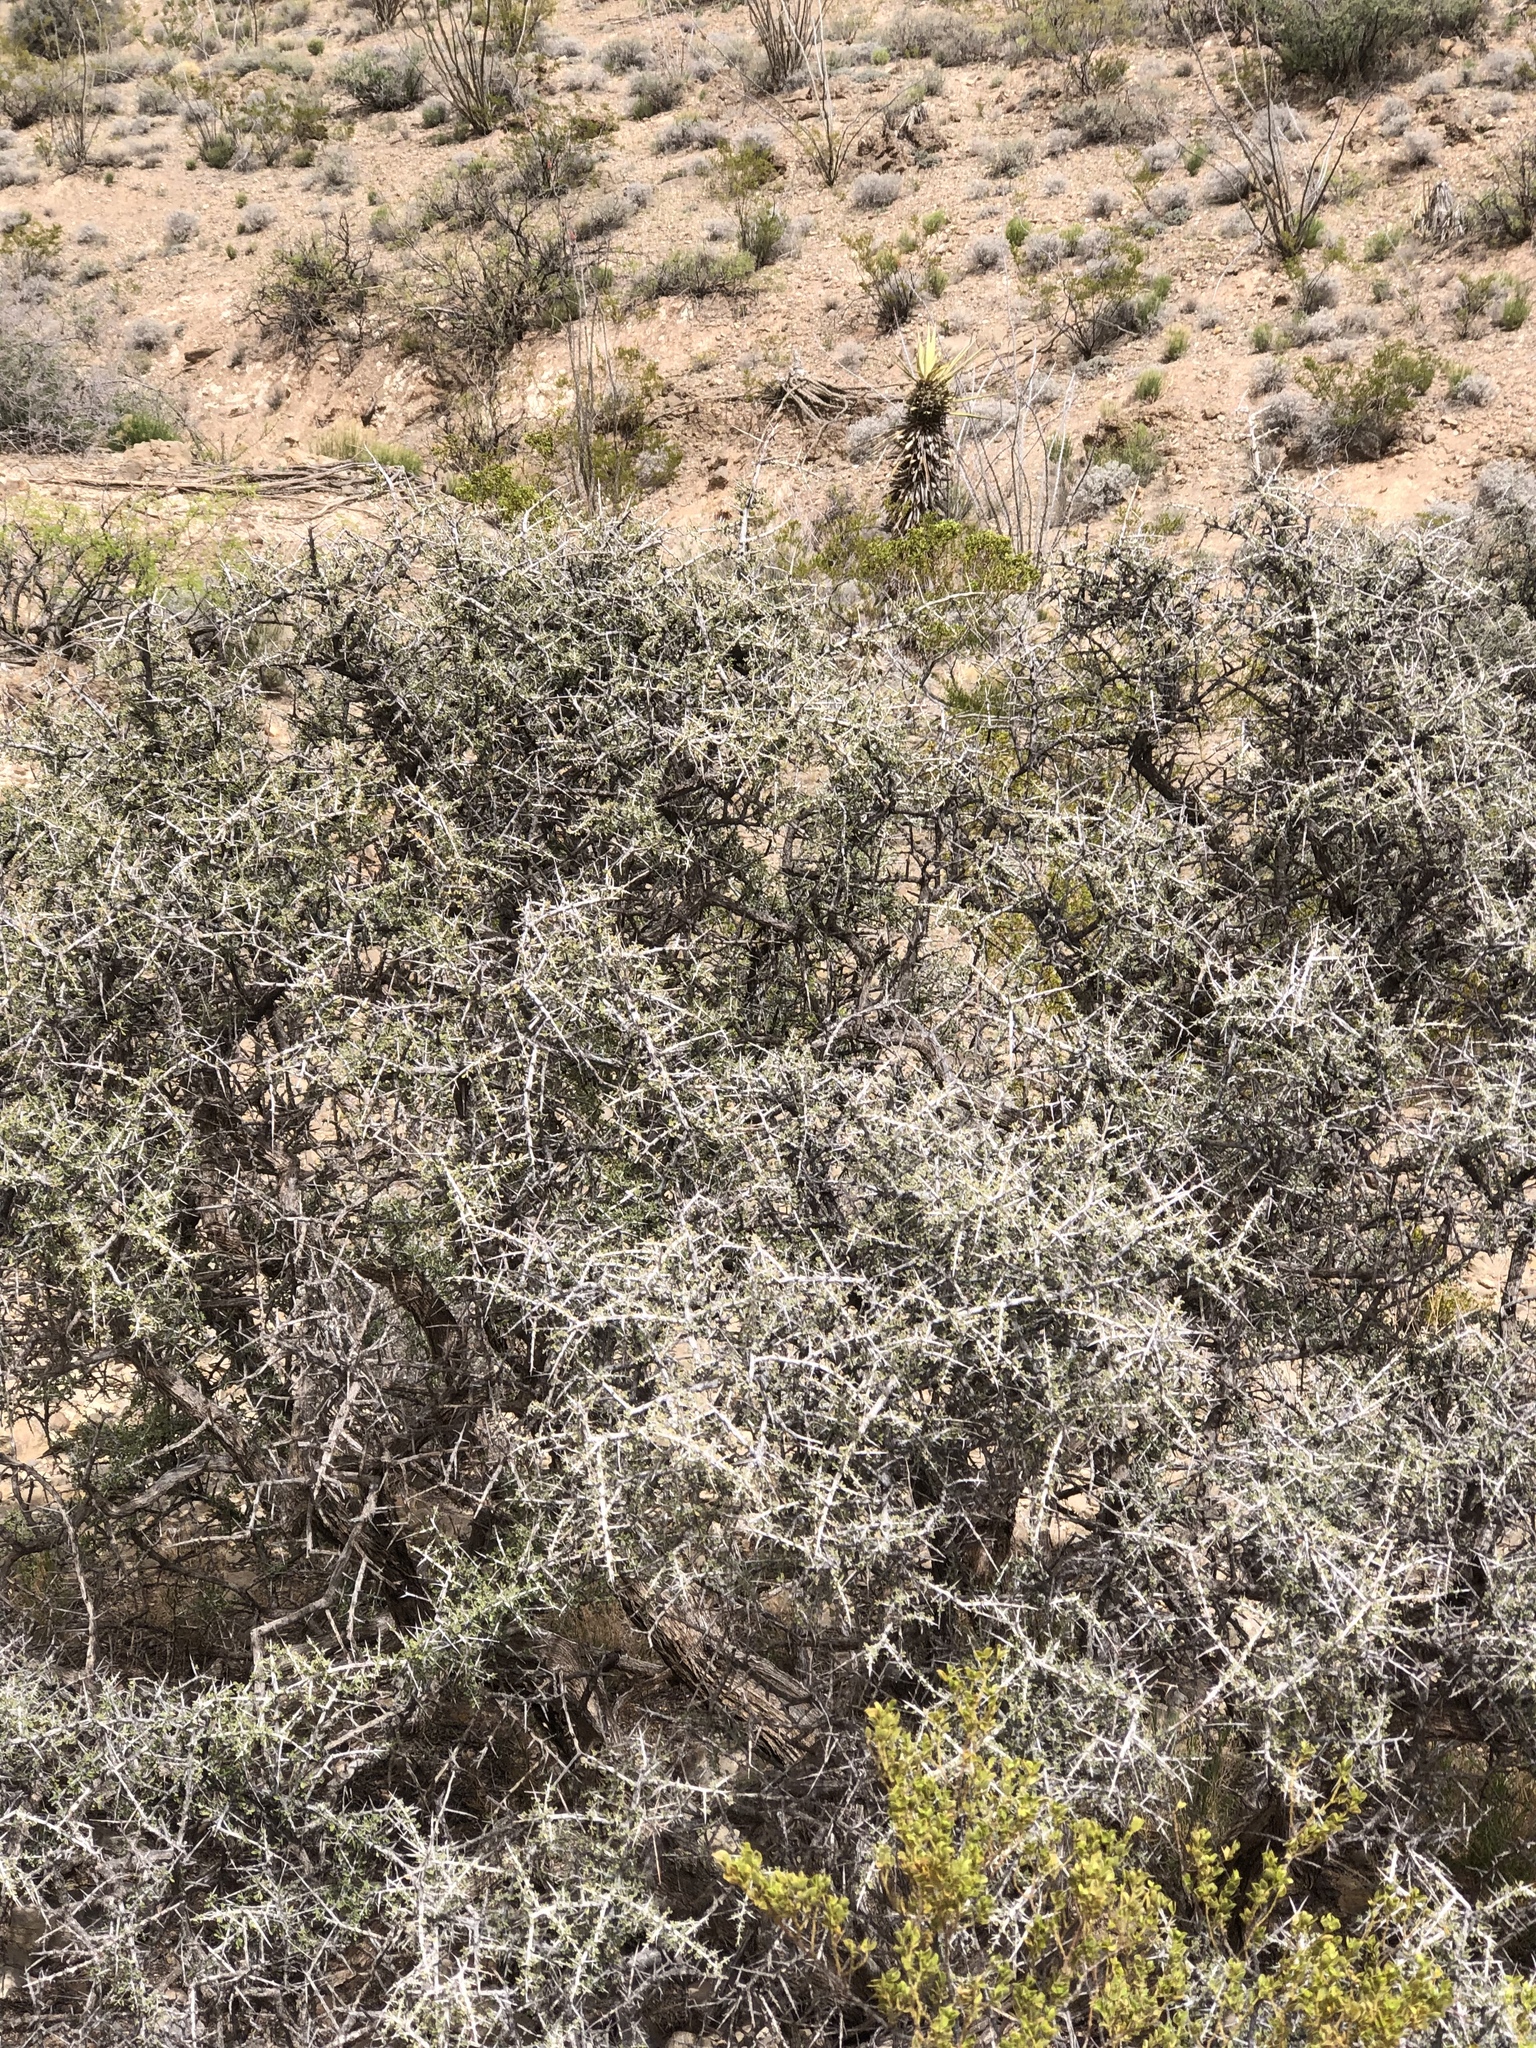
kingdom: Plantae
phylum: Tracheophyta
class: Magnoliopsida
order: Rosales
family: Rhamnaceae
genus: Condalia
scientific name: Condalia warnockii
